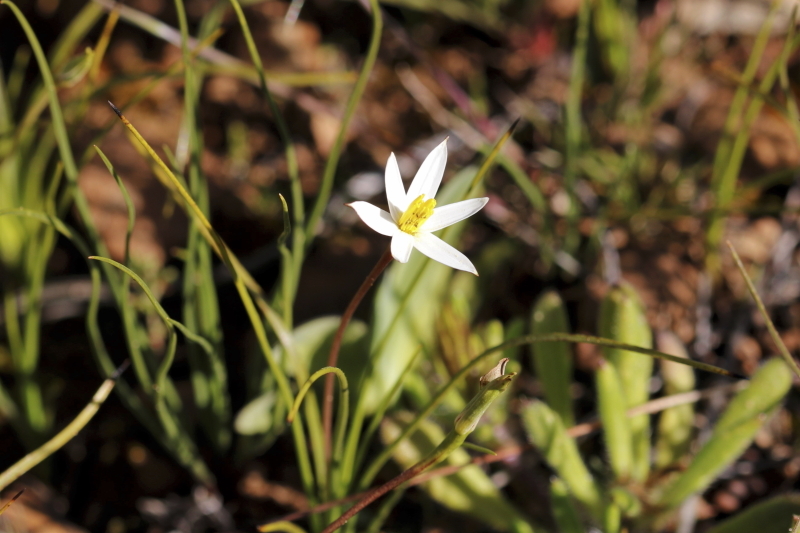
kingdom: Plantae
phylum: Tracheophyta
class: Liliopsida
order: Asparagales
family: Hypoxidaceae
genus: Pauridia
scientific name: Pauridia serrata
